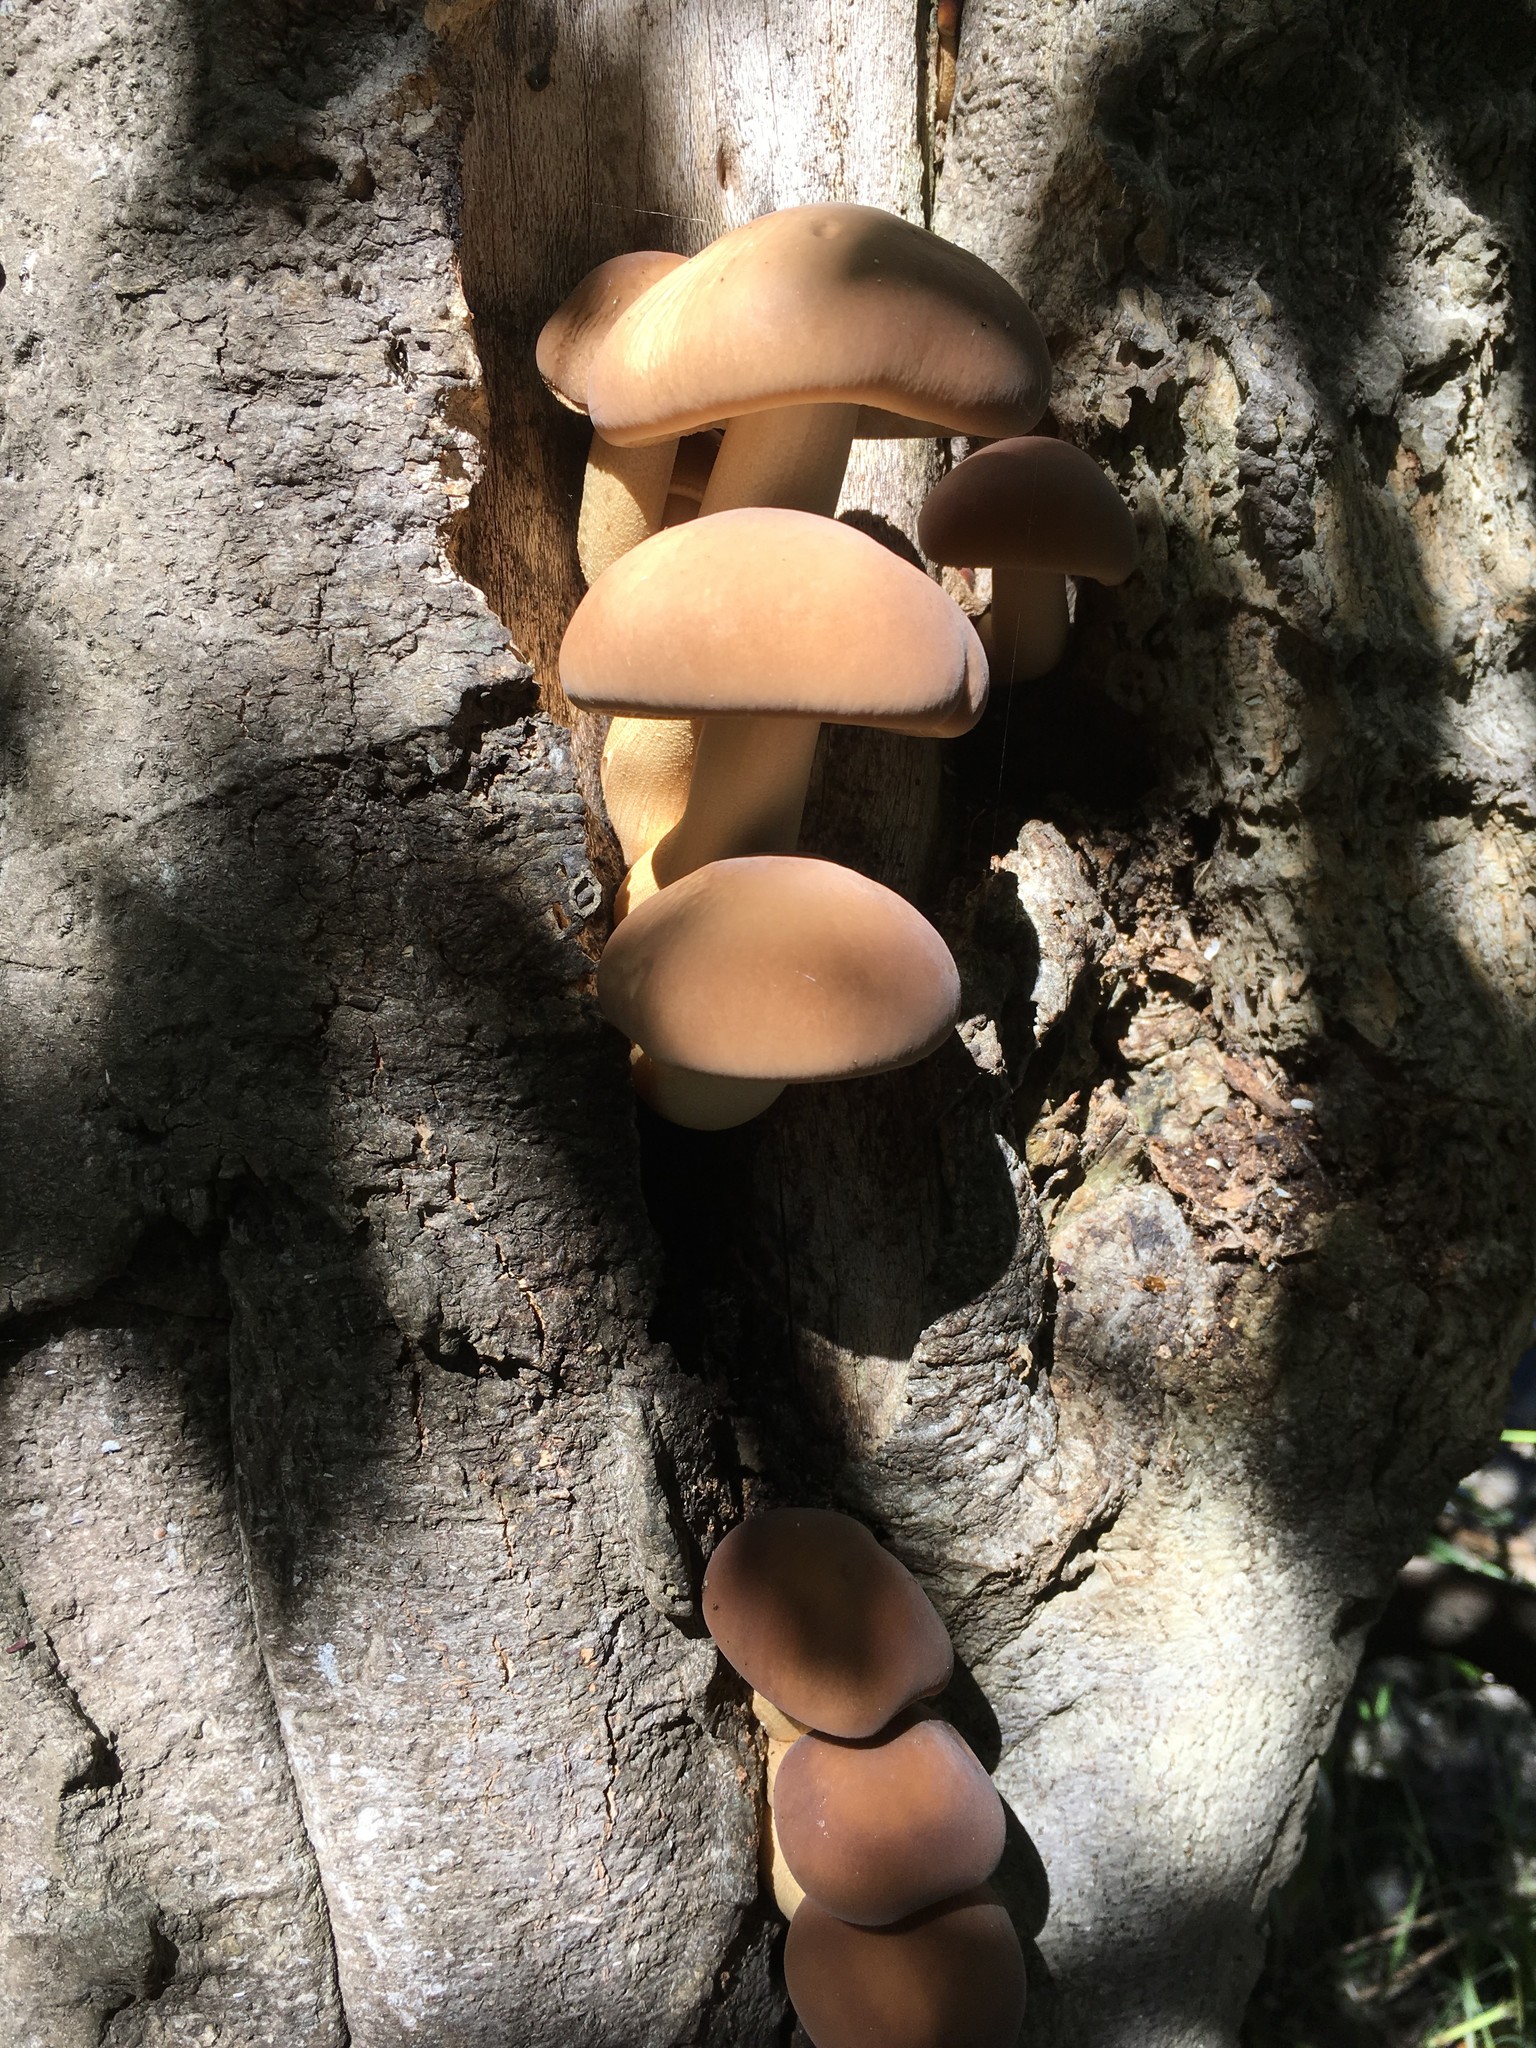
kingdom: Fungi
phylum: Basidiomycota
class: Agaricomycetes
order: Agaricales
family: Tubariaceae
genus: Cyclocybe
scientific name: Cyclocybe parasitica
